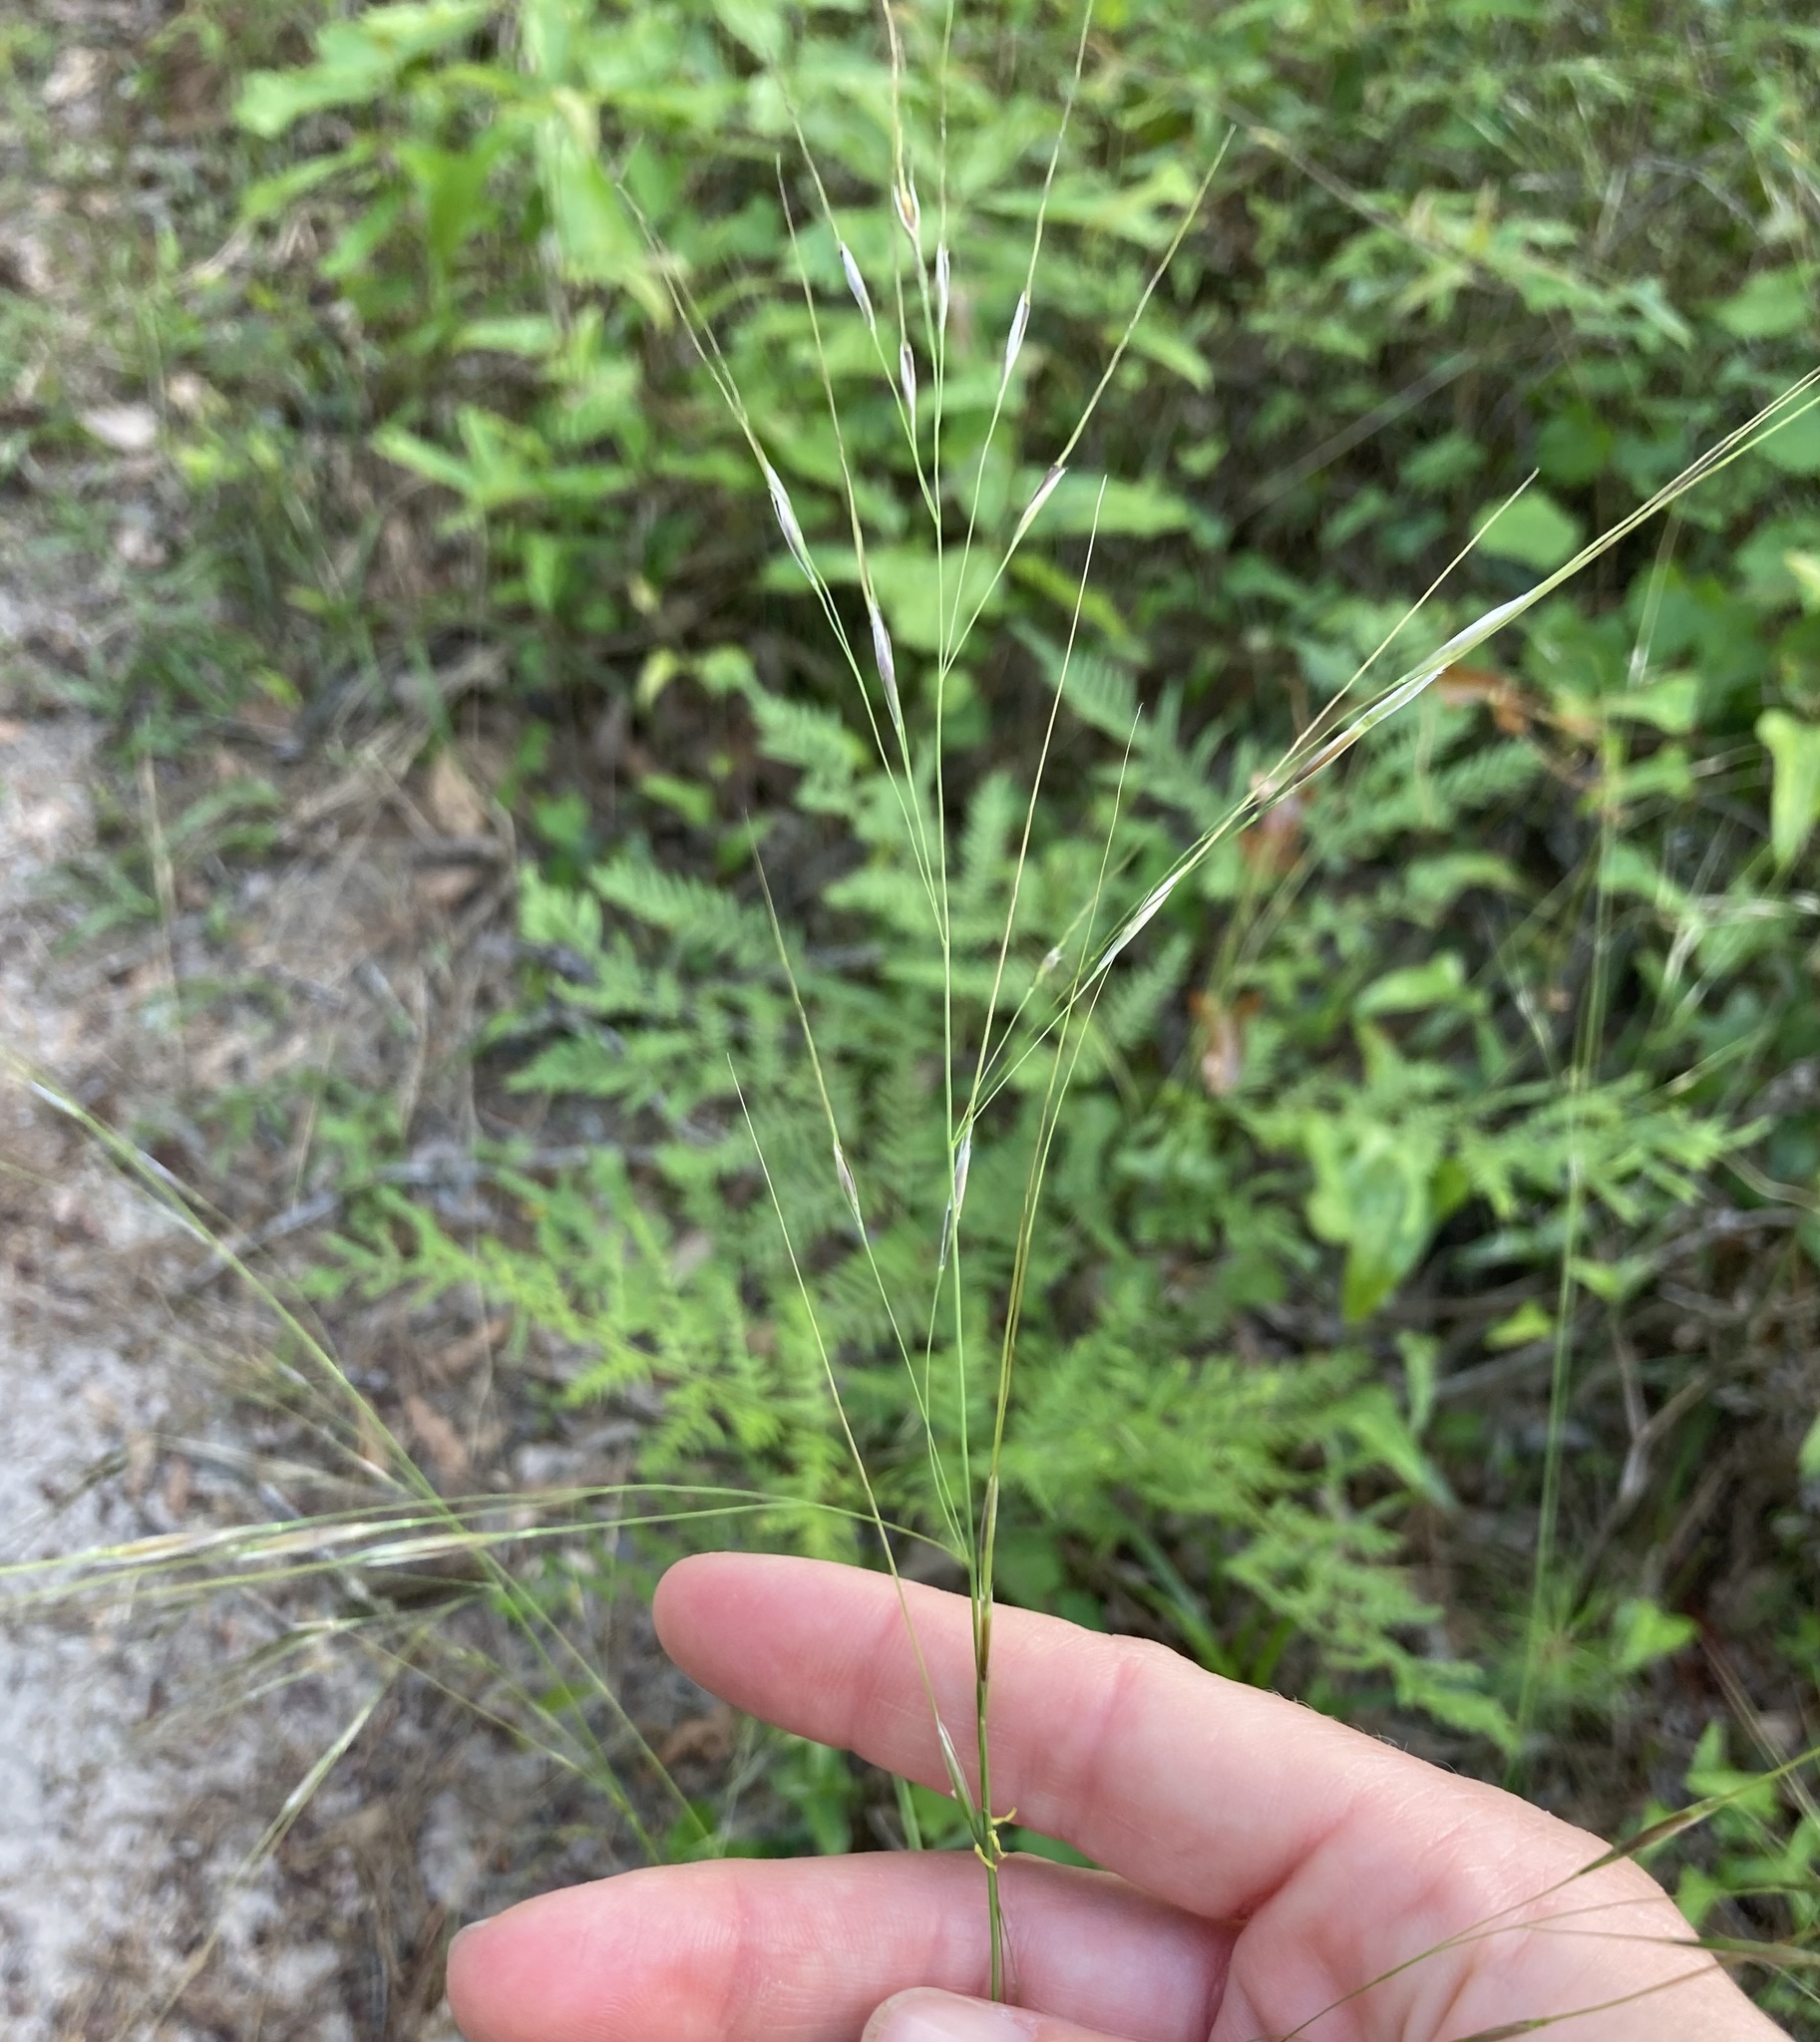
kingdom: Plantae
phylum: Tracheophyta
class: Liliopsida
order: Poales
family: Poaceae
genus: Piptochaetium
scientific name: Piptochaetium avenaceum
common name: Black bunchgrass
